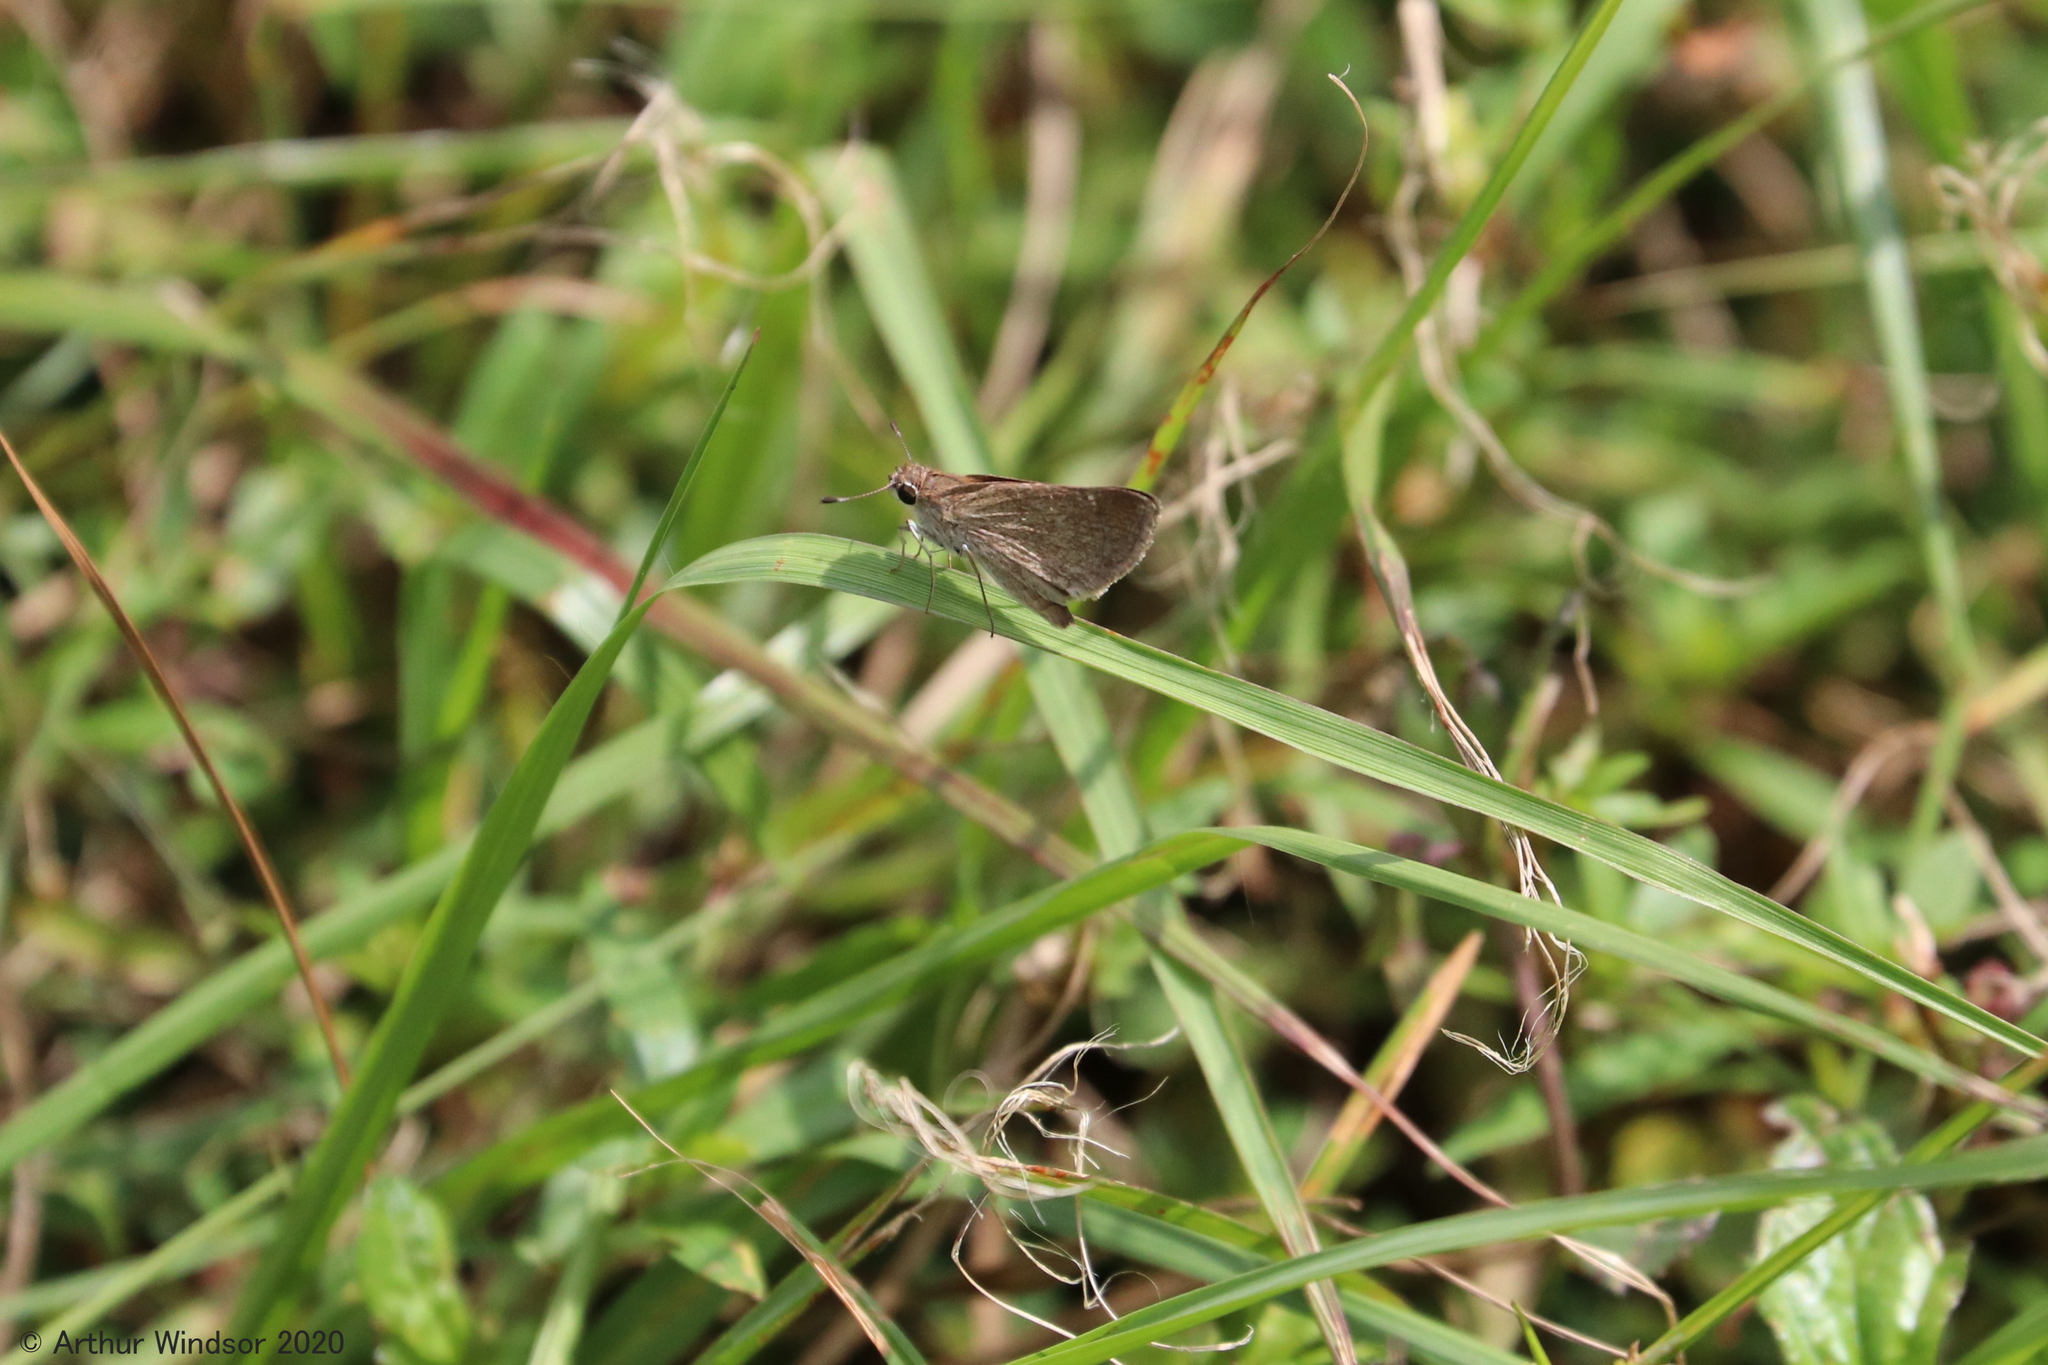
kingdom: Animalia
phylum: Arthropoda
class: Insecta
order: Lepidoptera
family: Hesperiidae
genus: Lerodea
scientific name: Lerodea eufala
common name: Eufala skipper
